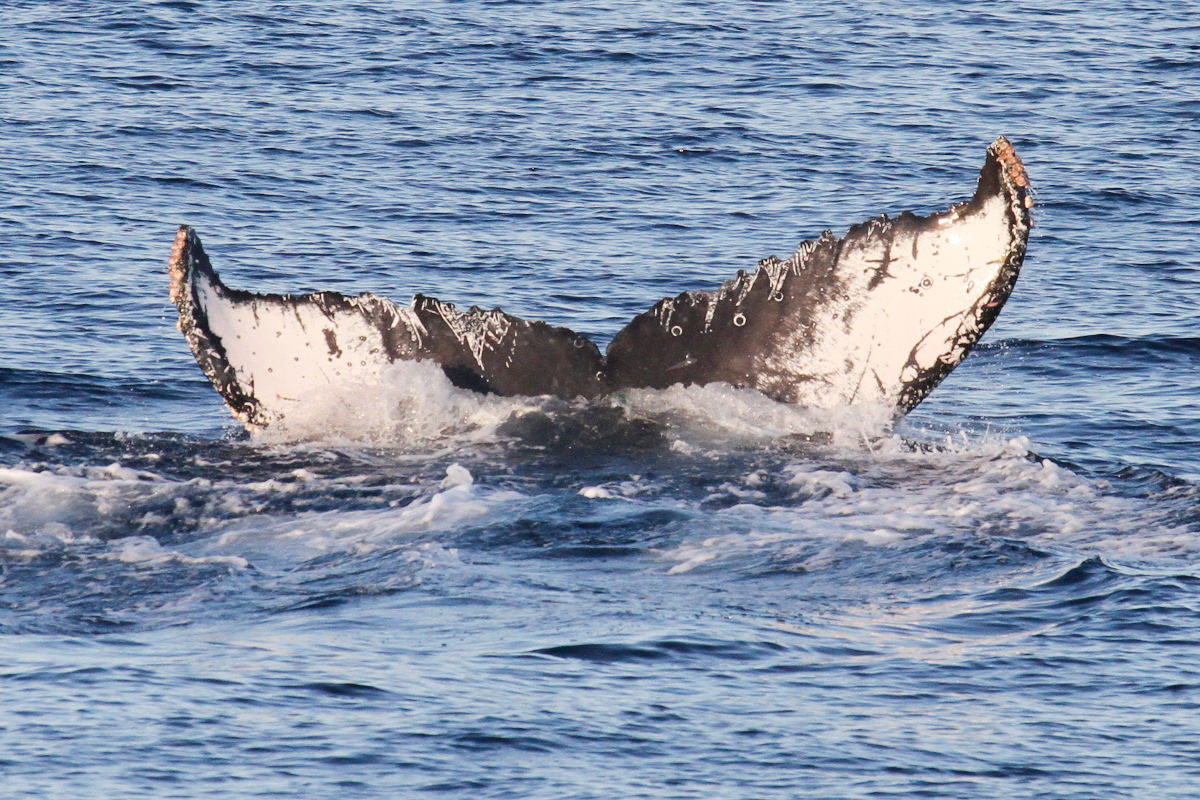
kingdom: Animalia
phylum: Chordata
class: Mammalia
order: Cetacea
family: Balaenopteridae
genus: Megaptera
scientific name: Megaptera novaeangliae
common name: Humpback whale
